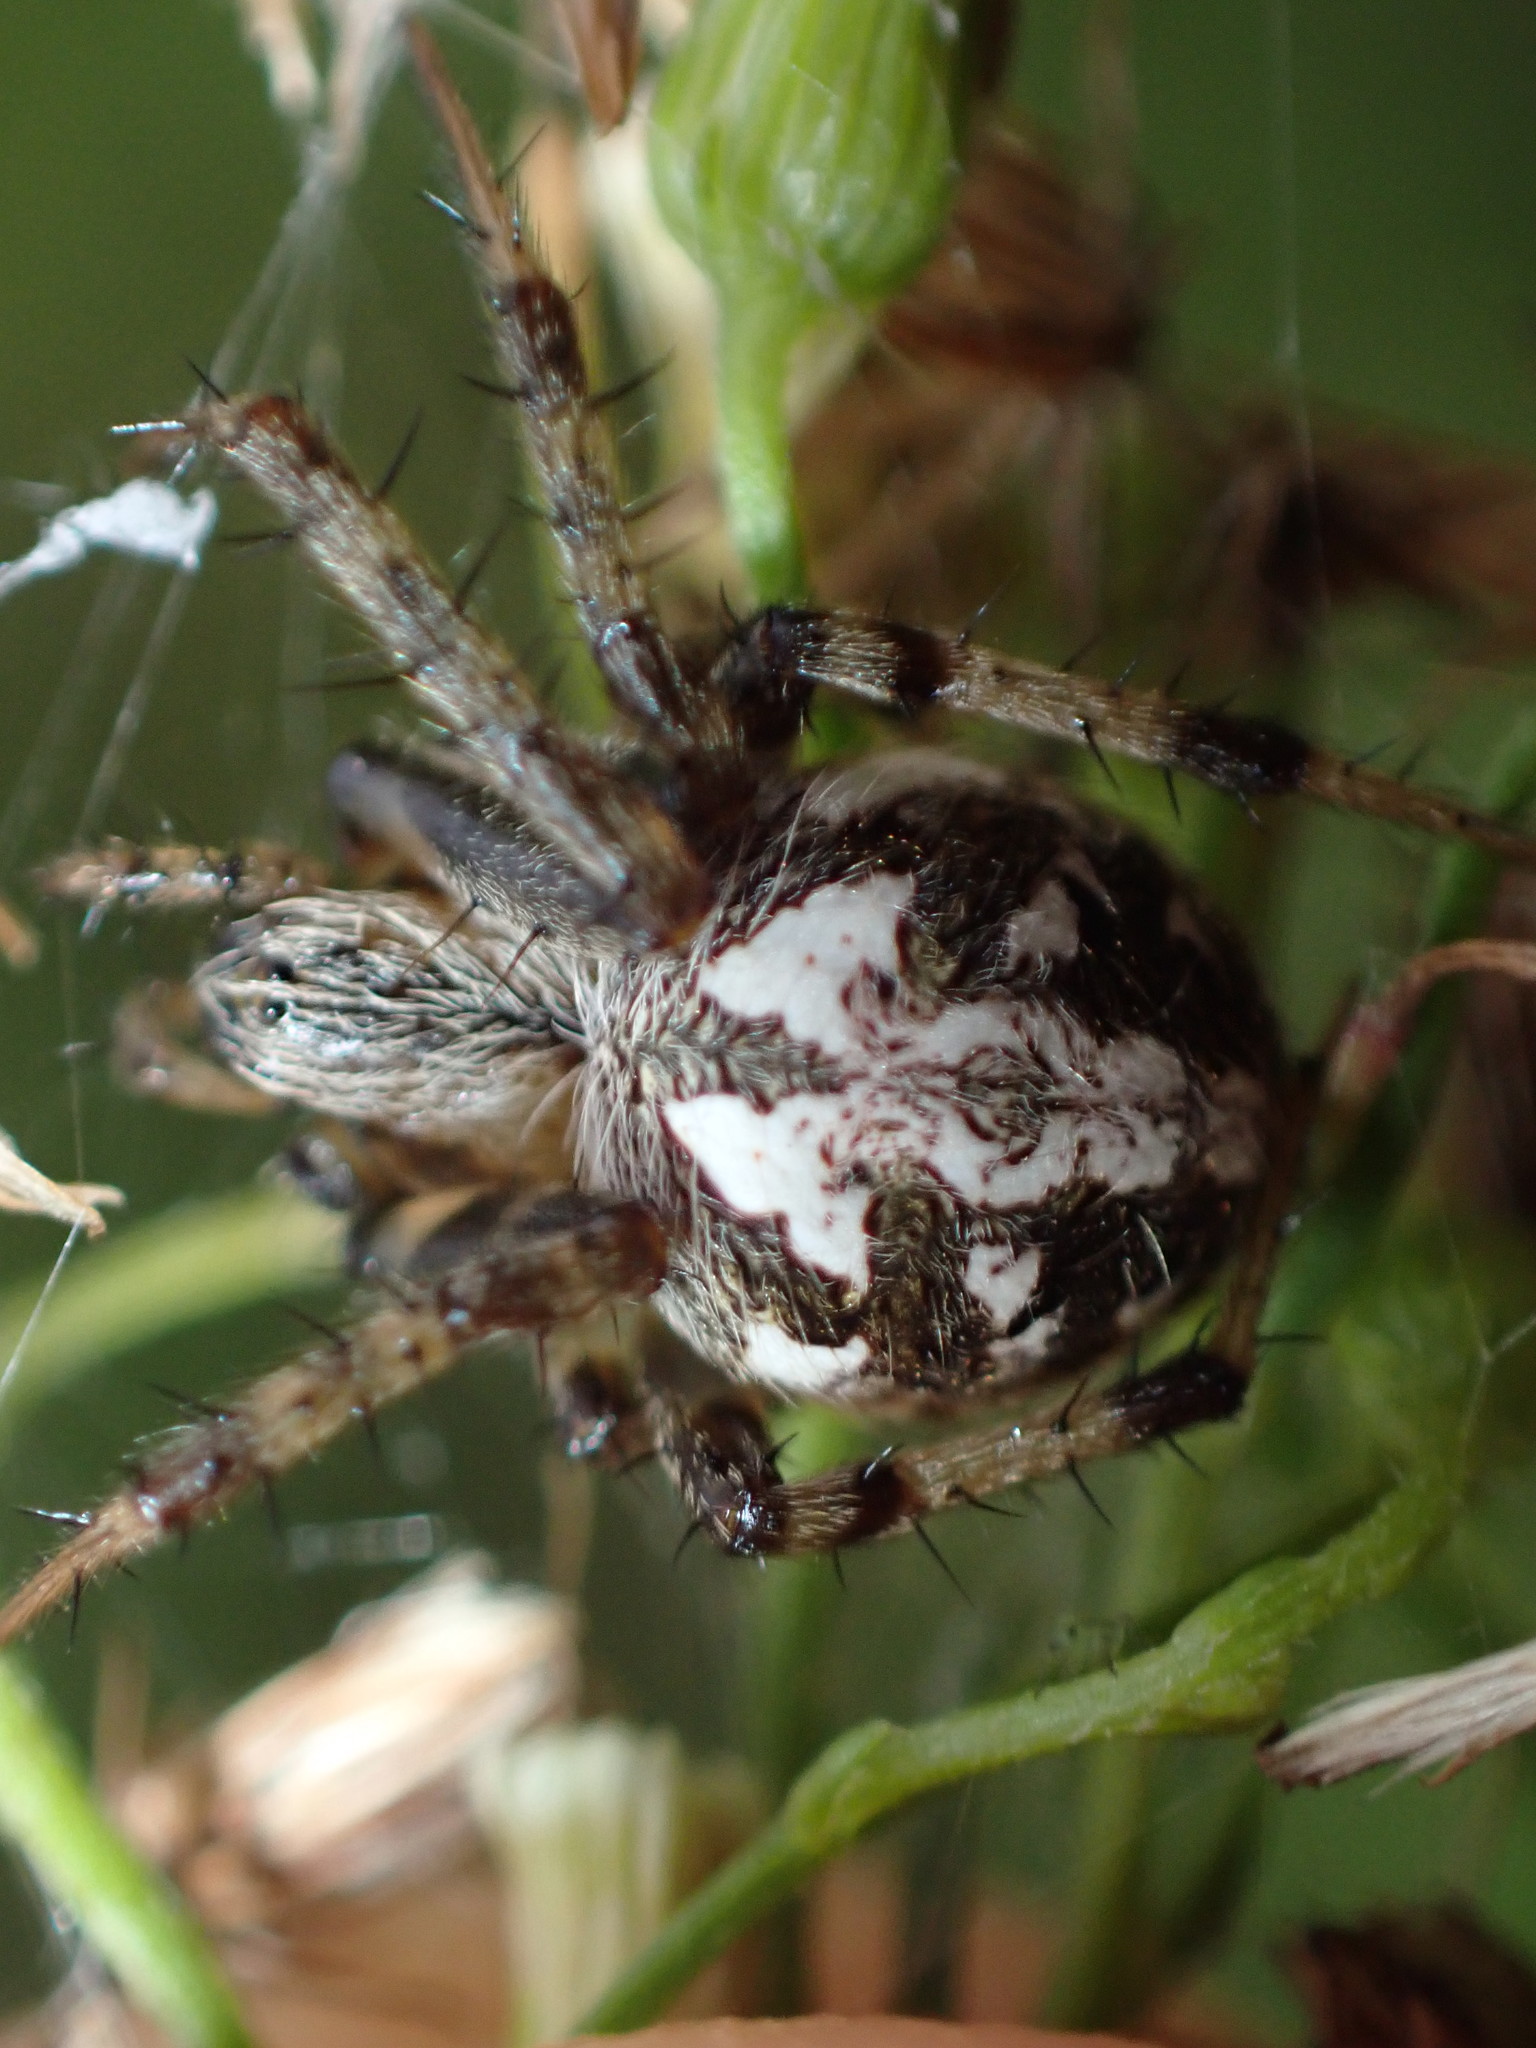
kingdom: Animalia
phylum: Arthropoda
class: Arachnida
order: Araneae
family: Araneidae
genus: Neoscona
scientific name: Neoscona arabesca
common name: Orb weavers
